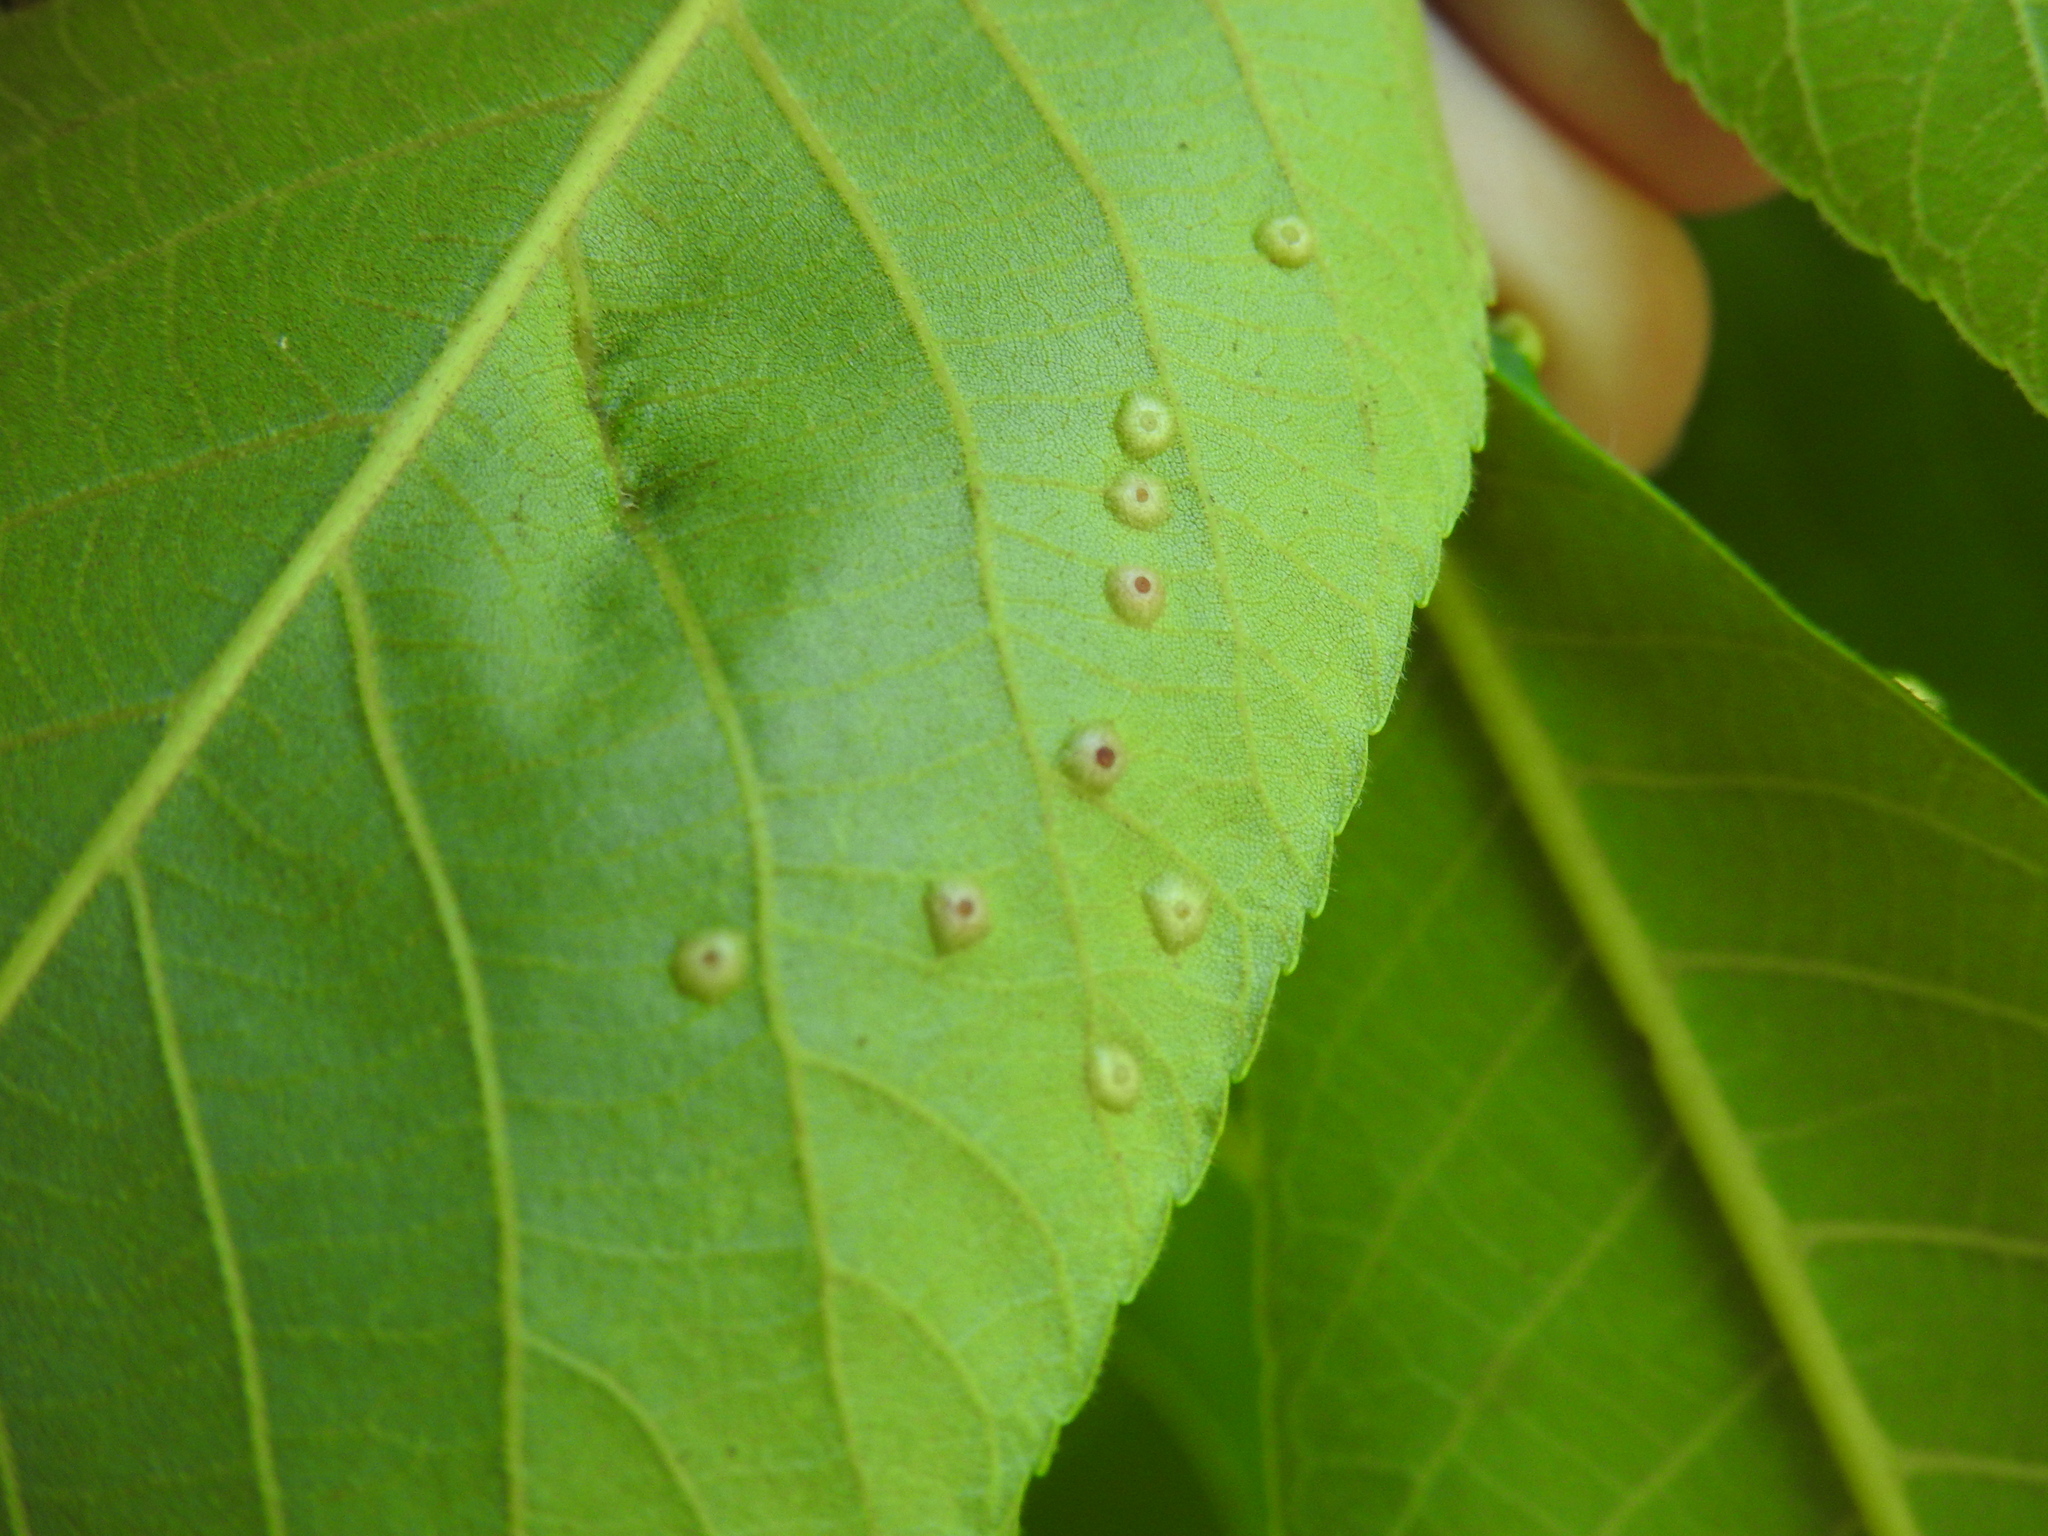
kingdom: Animalia
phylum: Arthropoda
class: Insecta
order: Diptera
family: Cecidomyiidae
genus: Caryomyia
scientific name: Caryomyia tubicola
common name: Hickory bullet gall midge
